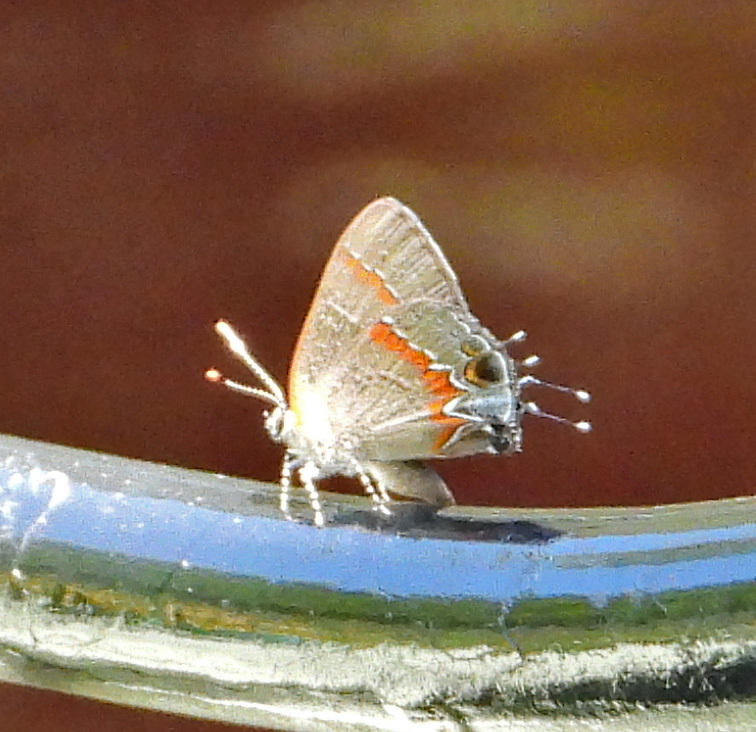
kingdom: Animalia
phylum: Arthropoda
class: Insecta
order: Lepidoptera
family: Lycaenidae
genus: Calycopis
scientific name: Calycopis cecrops
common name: Red-banded hairstreak
